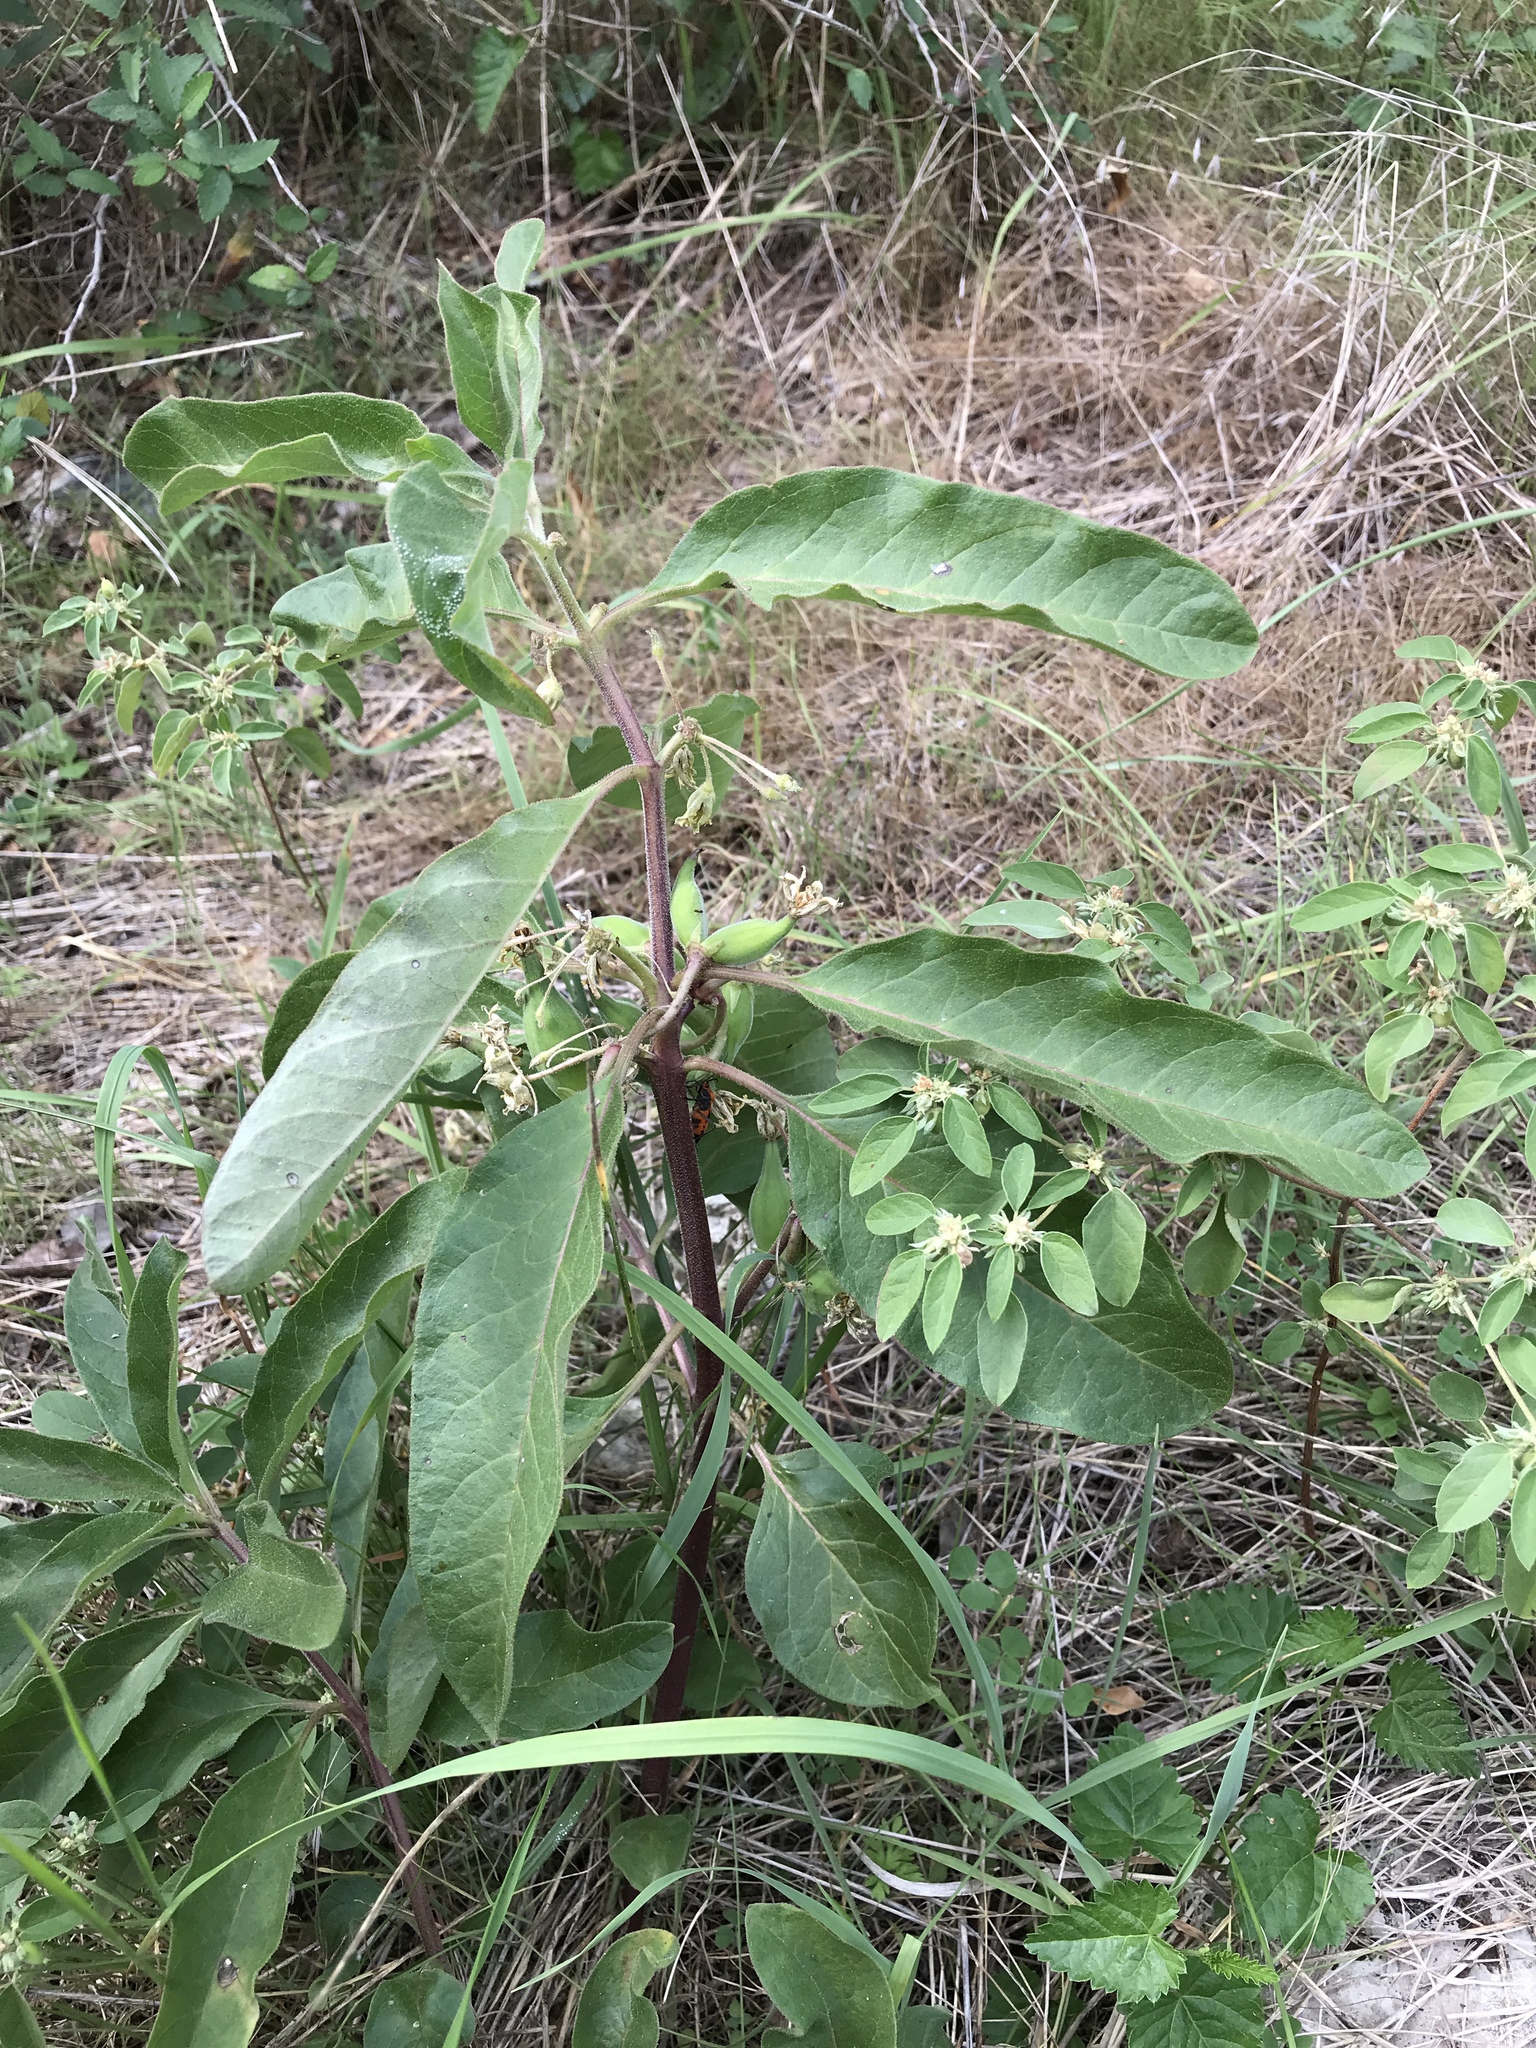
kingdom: Plantae
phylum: Tracheophyta
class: Magnoliopsida
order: Gentianales
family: Apocynaceae
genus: Asclepias
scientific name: Asclepias oenotheroides
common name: Zizotes milkweed
